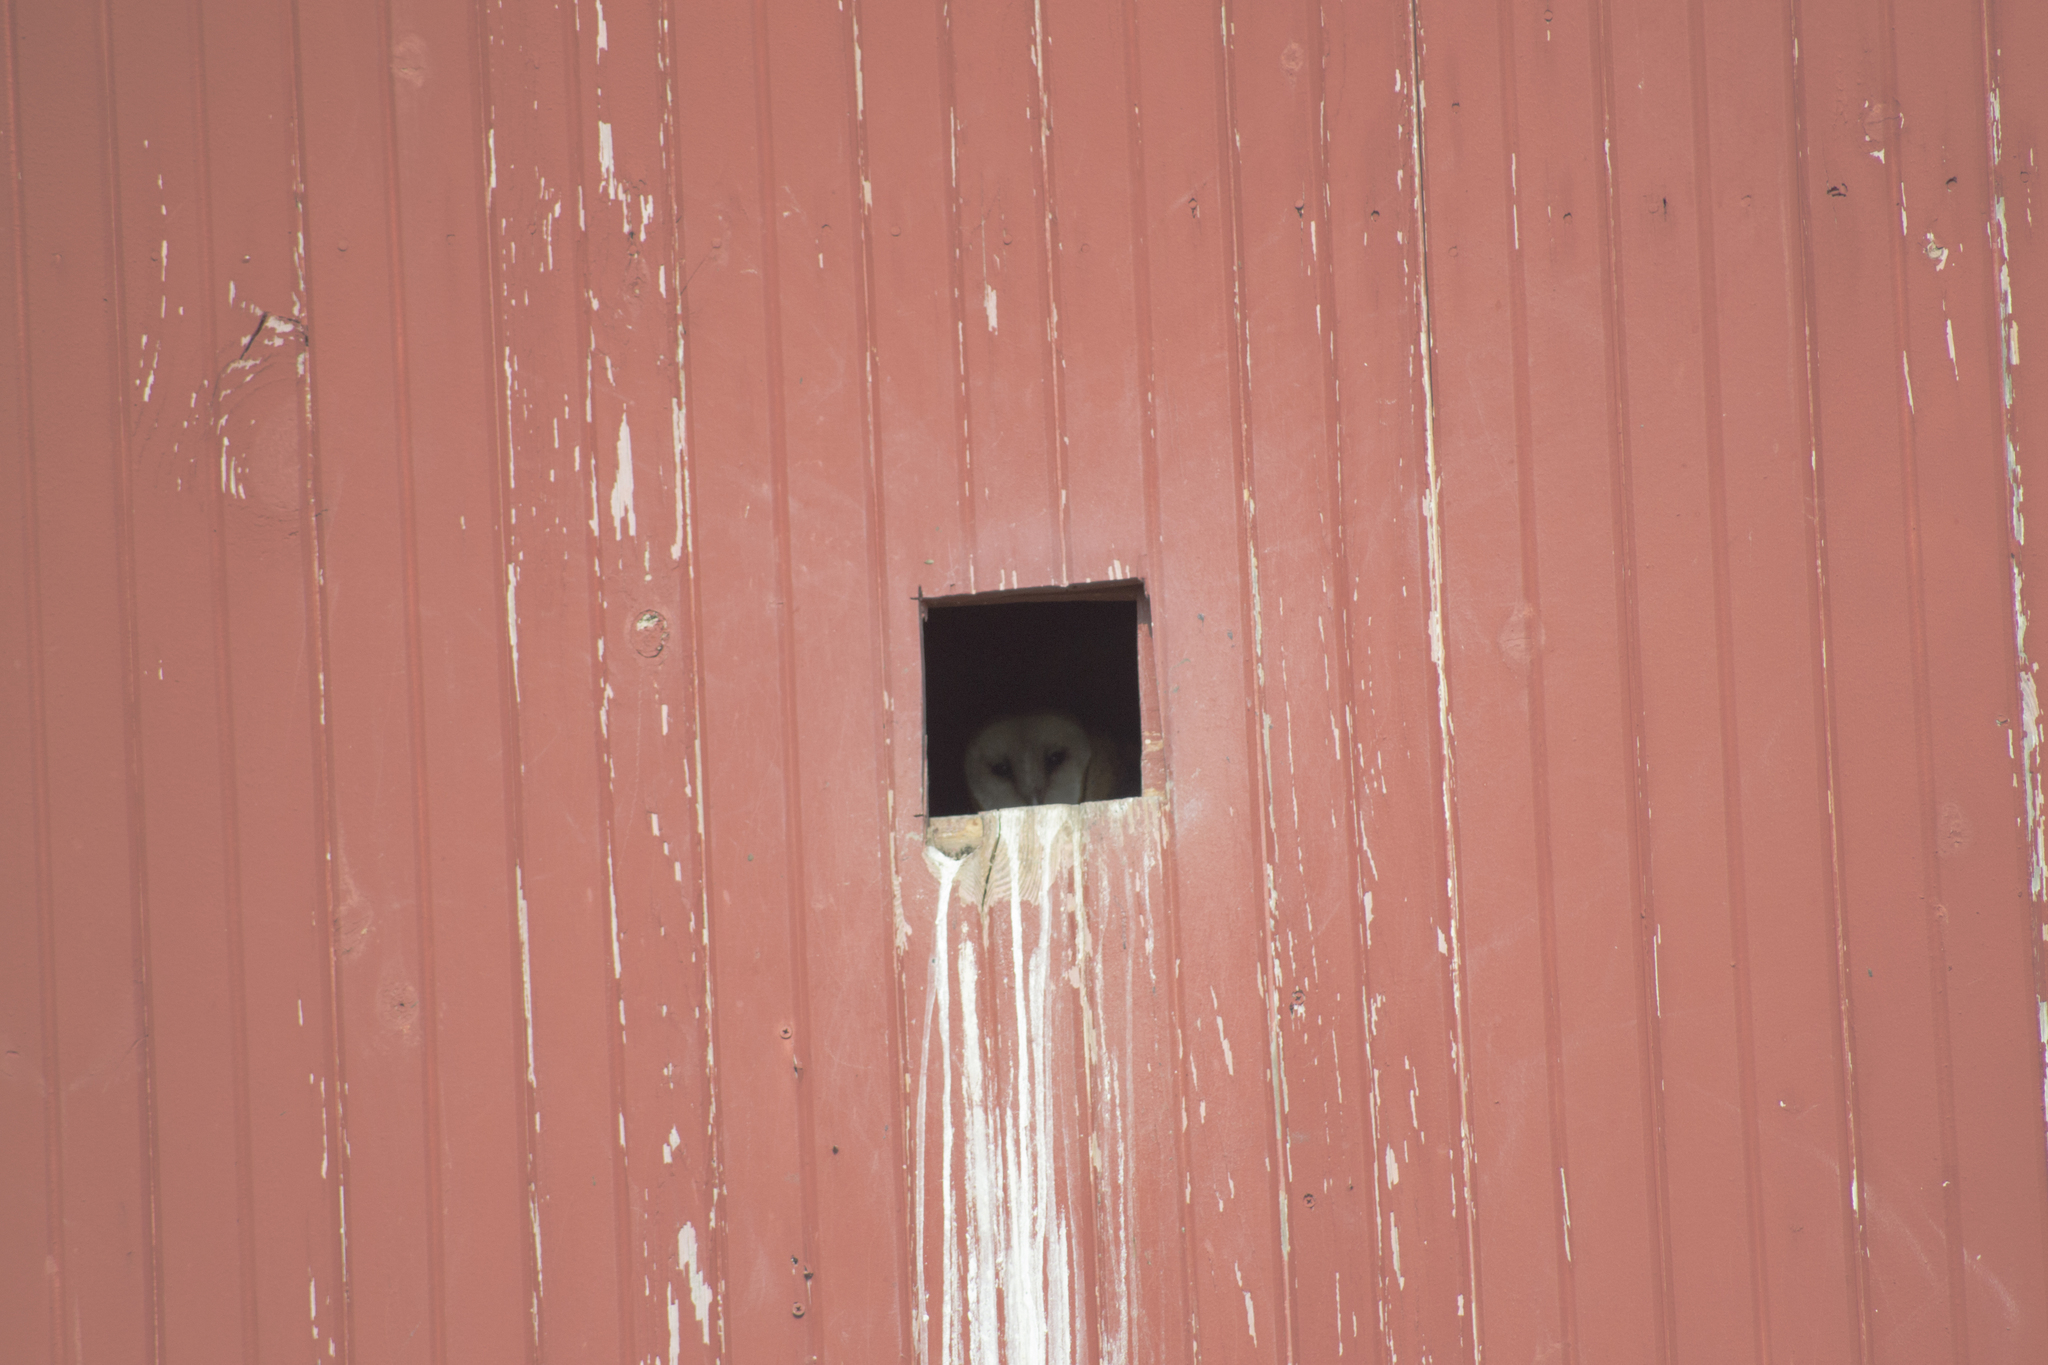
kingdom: Animalia
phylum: Chordata
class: Aves
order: Strigiformes
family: Tytonidae
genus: Tyto
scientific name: Tyto alba
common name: Barn owl
